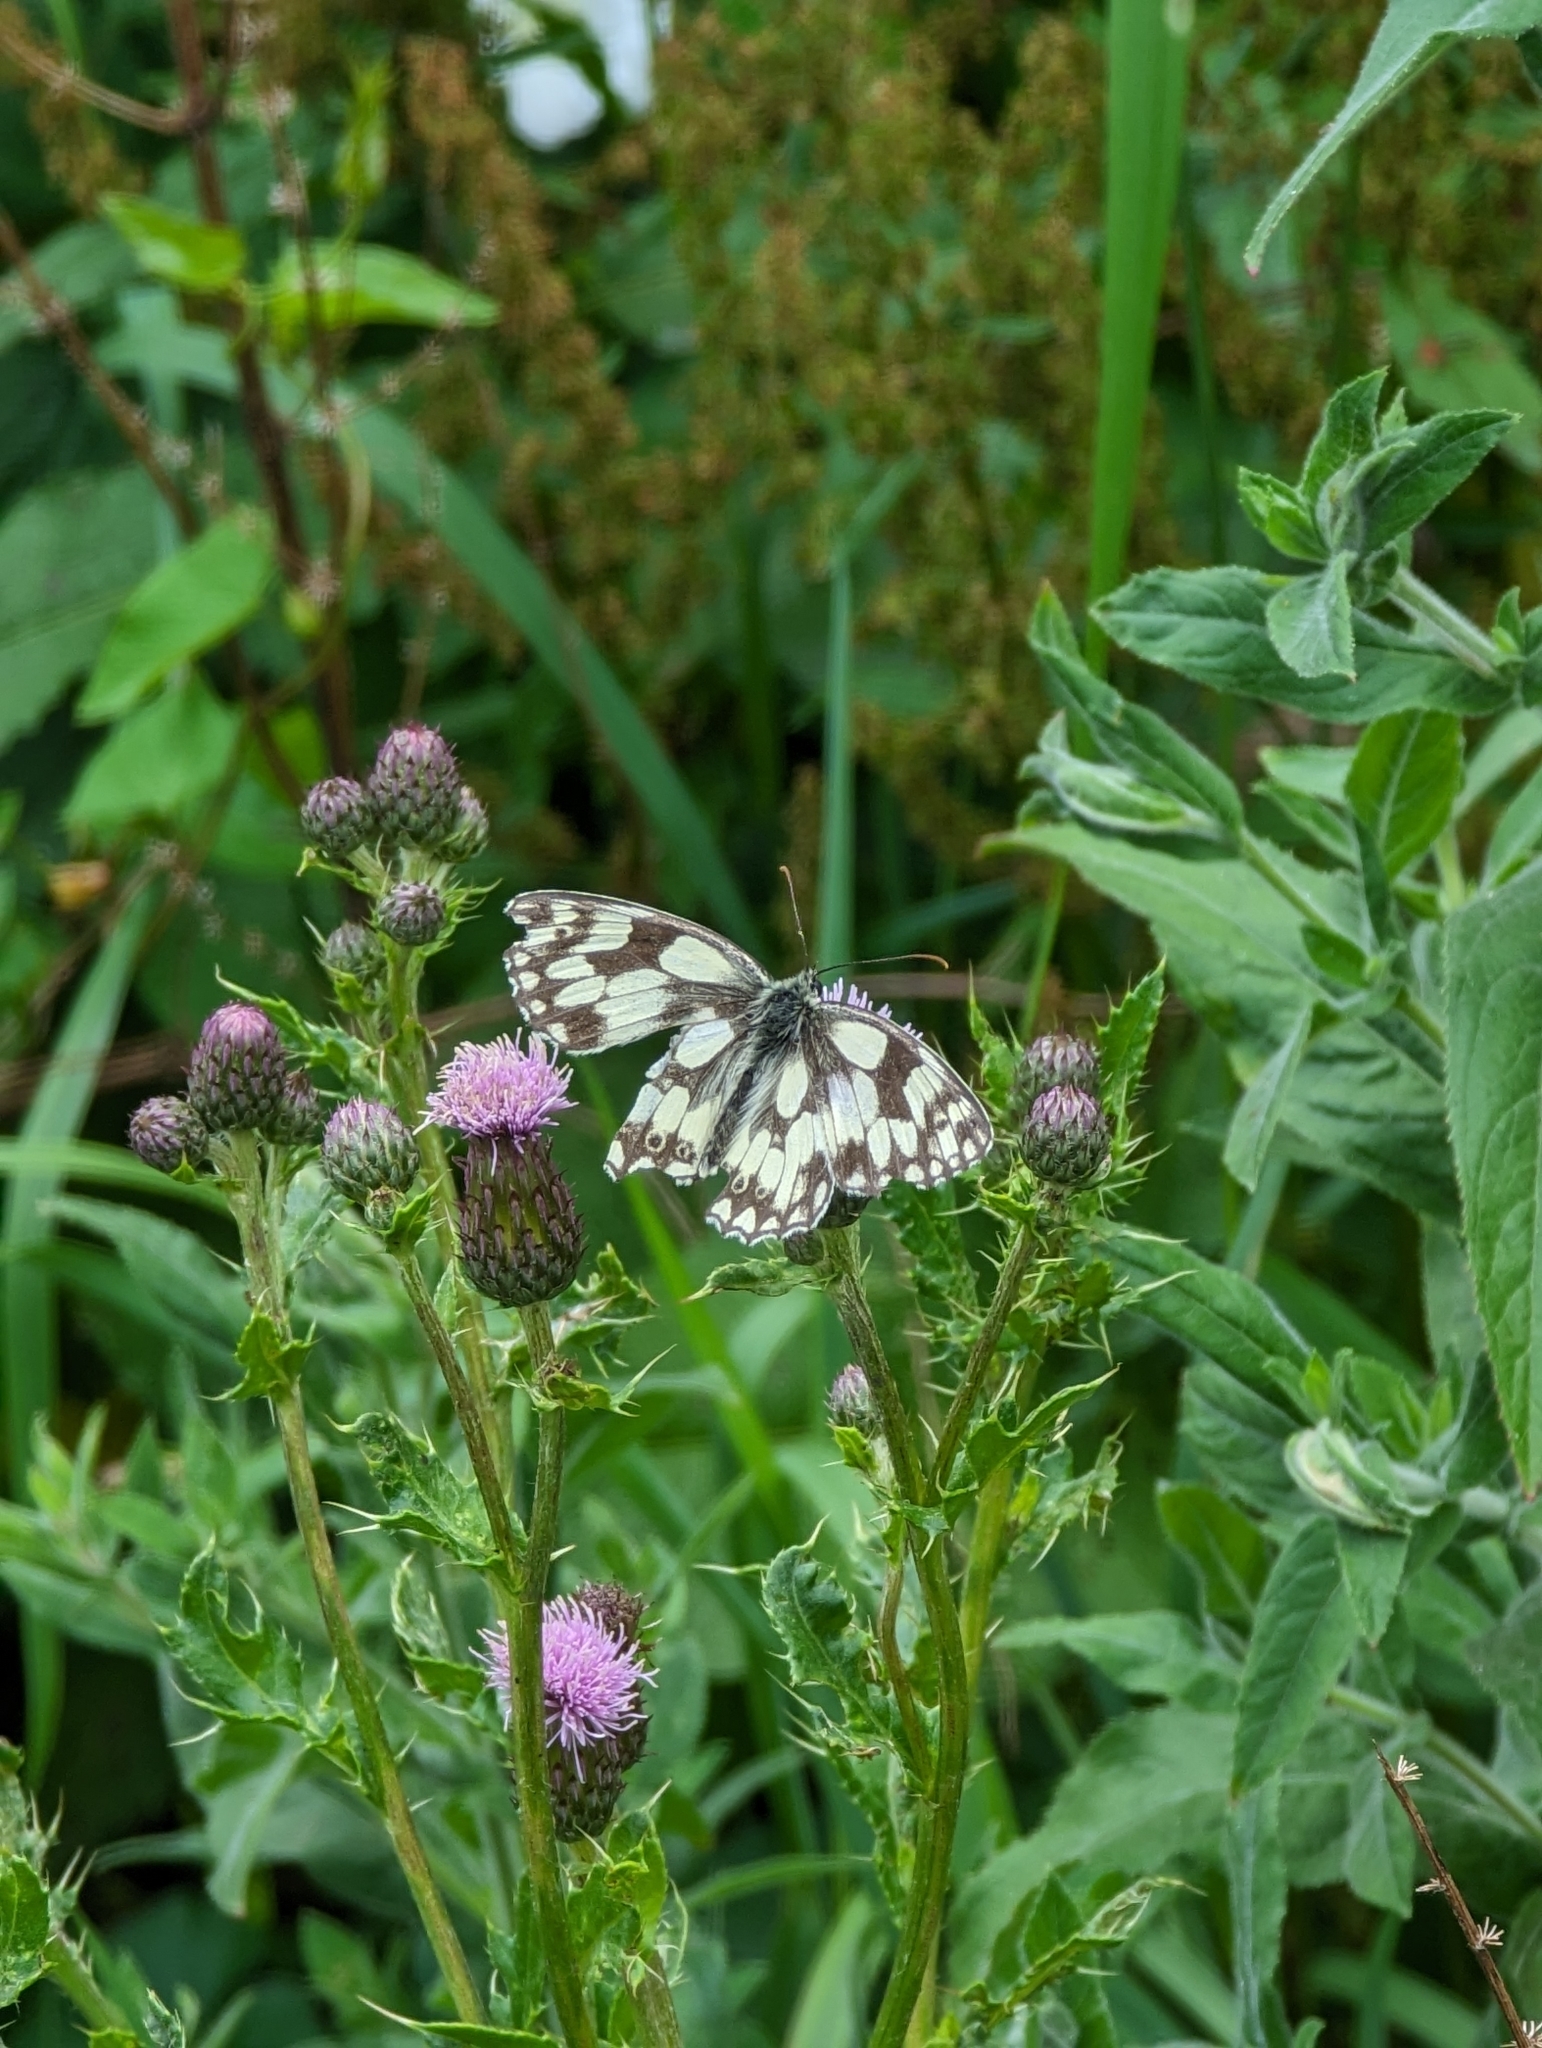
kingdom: Animalia
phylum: Arthropoda
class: Insecta
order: Lepidoptera
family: Nymphalidae
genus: Melanargia
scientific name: Melanargia galathea
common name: Marbled white
